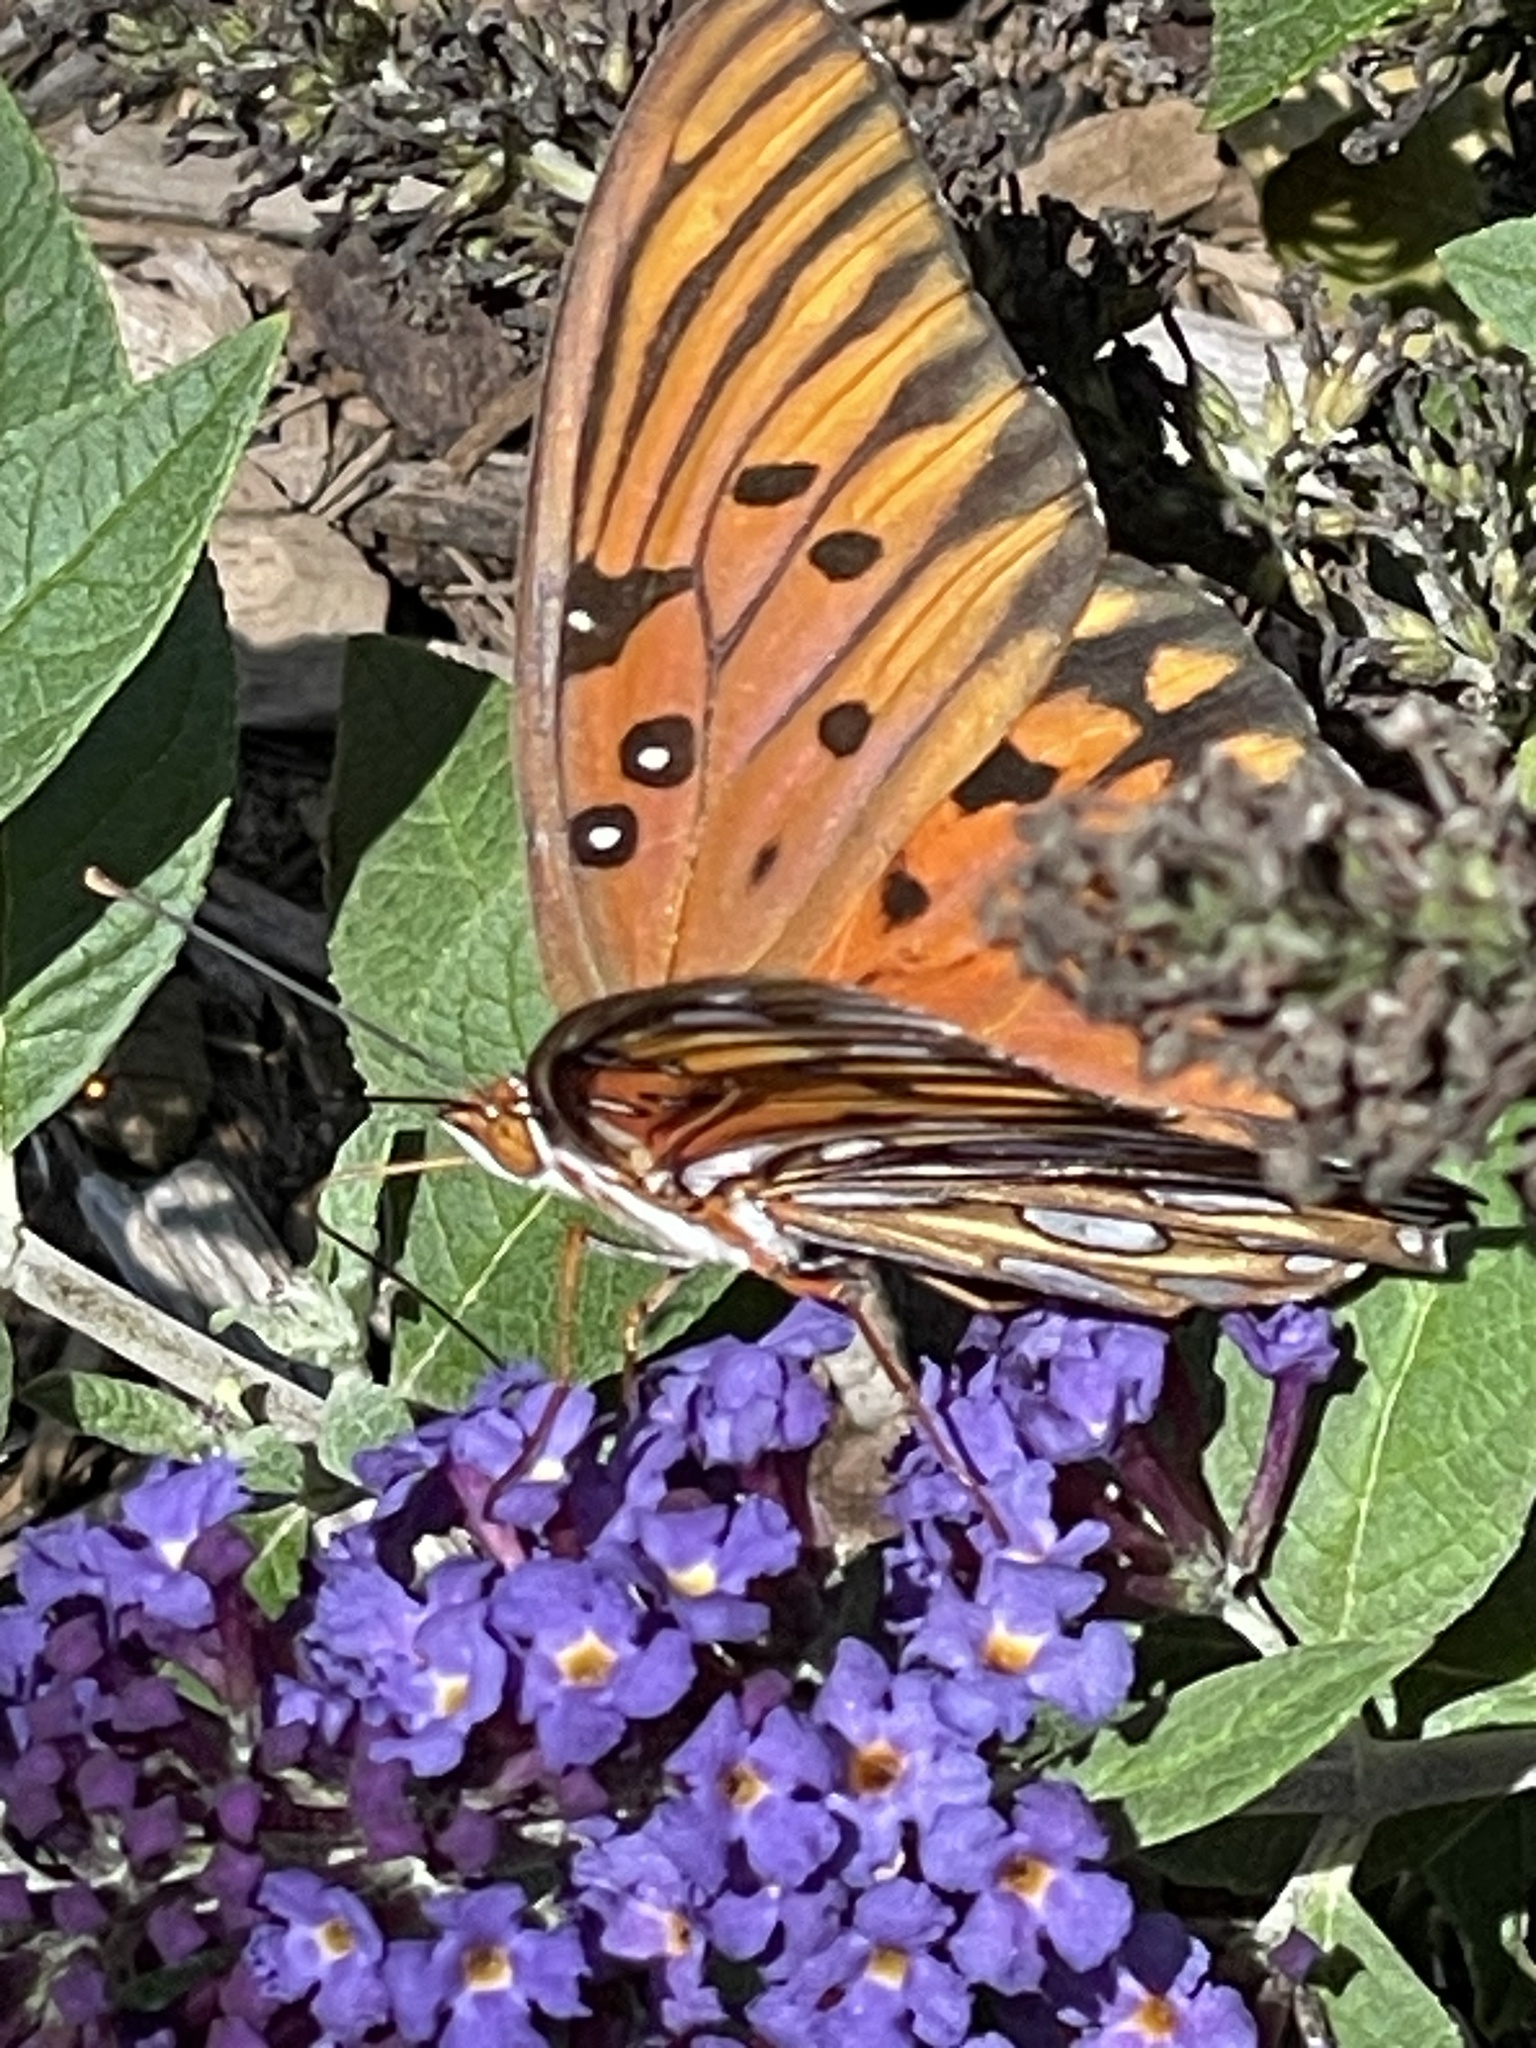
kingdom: Animalia
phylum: Arthropoda
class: Insecta
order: Lepidoptera
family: Nymphalidae
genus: Dione
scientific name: Dione vanillae
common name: Gulf fritillary
